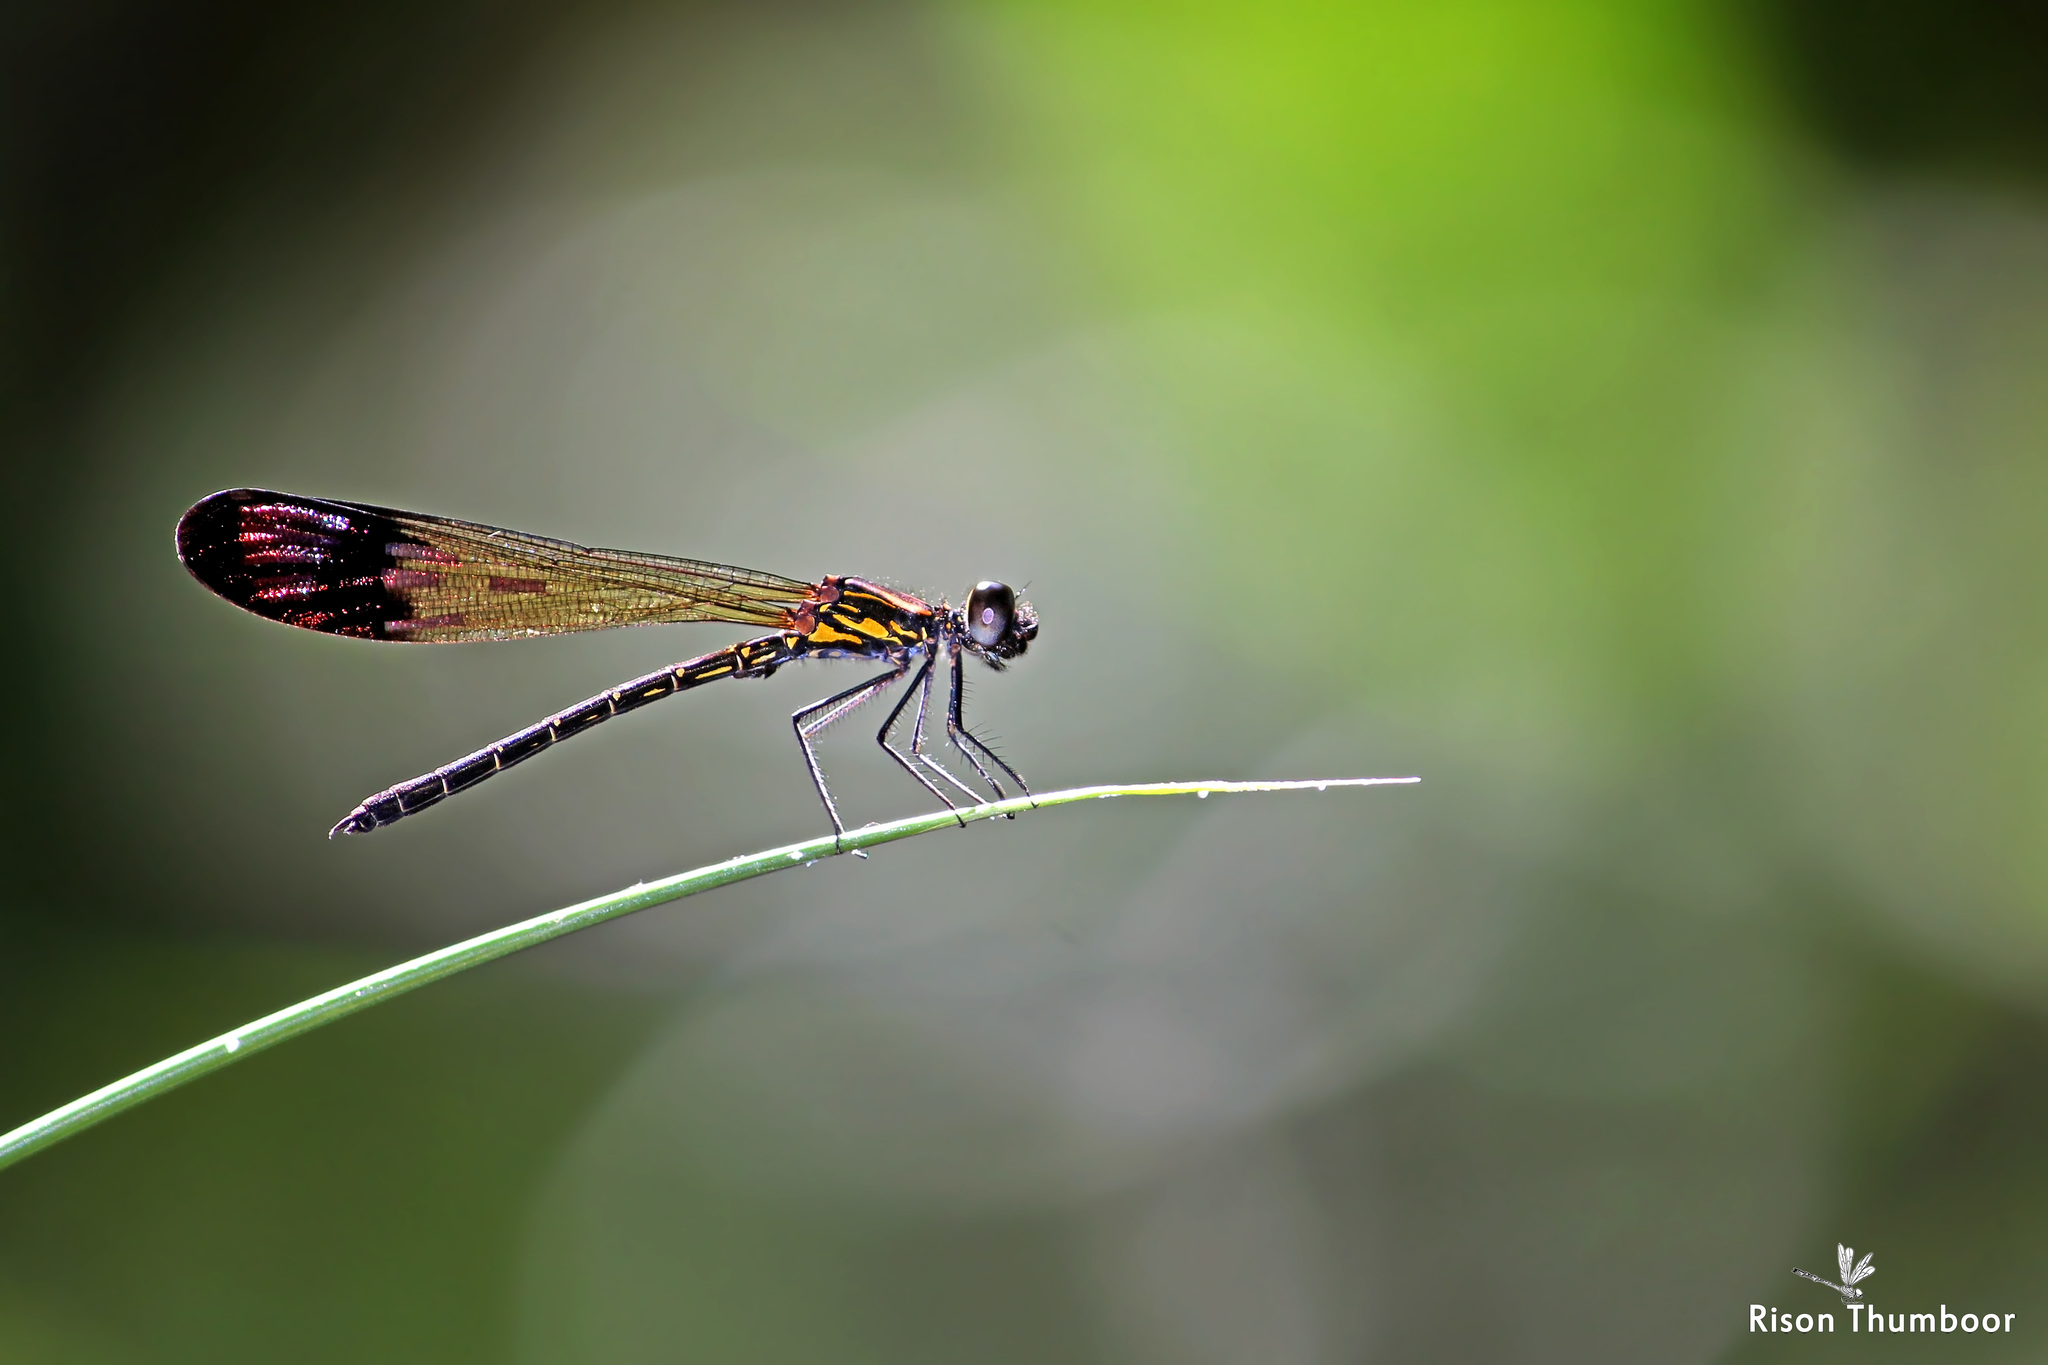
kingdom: Animalia
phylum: Arthropoda
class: Insecta
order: Odonata
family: Chlorocyphidae
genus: Heliocypha
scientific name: Heliocypha bisignata
